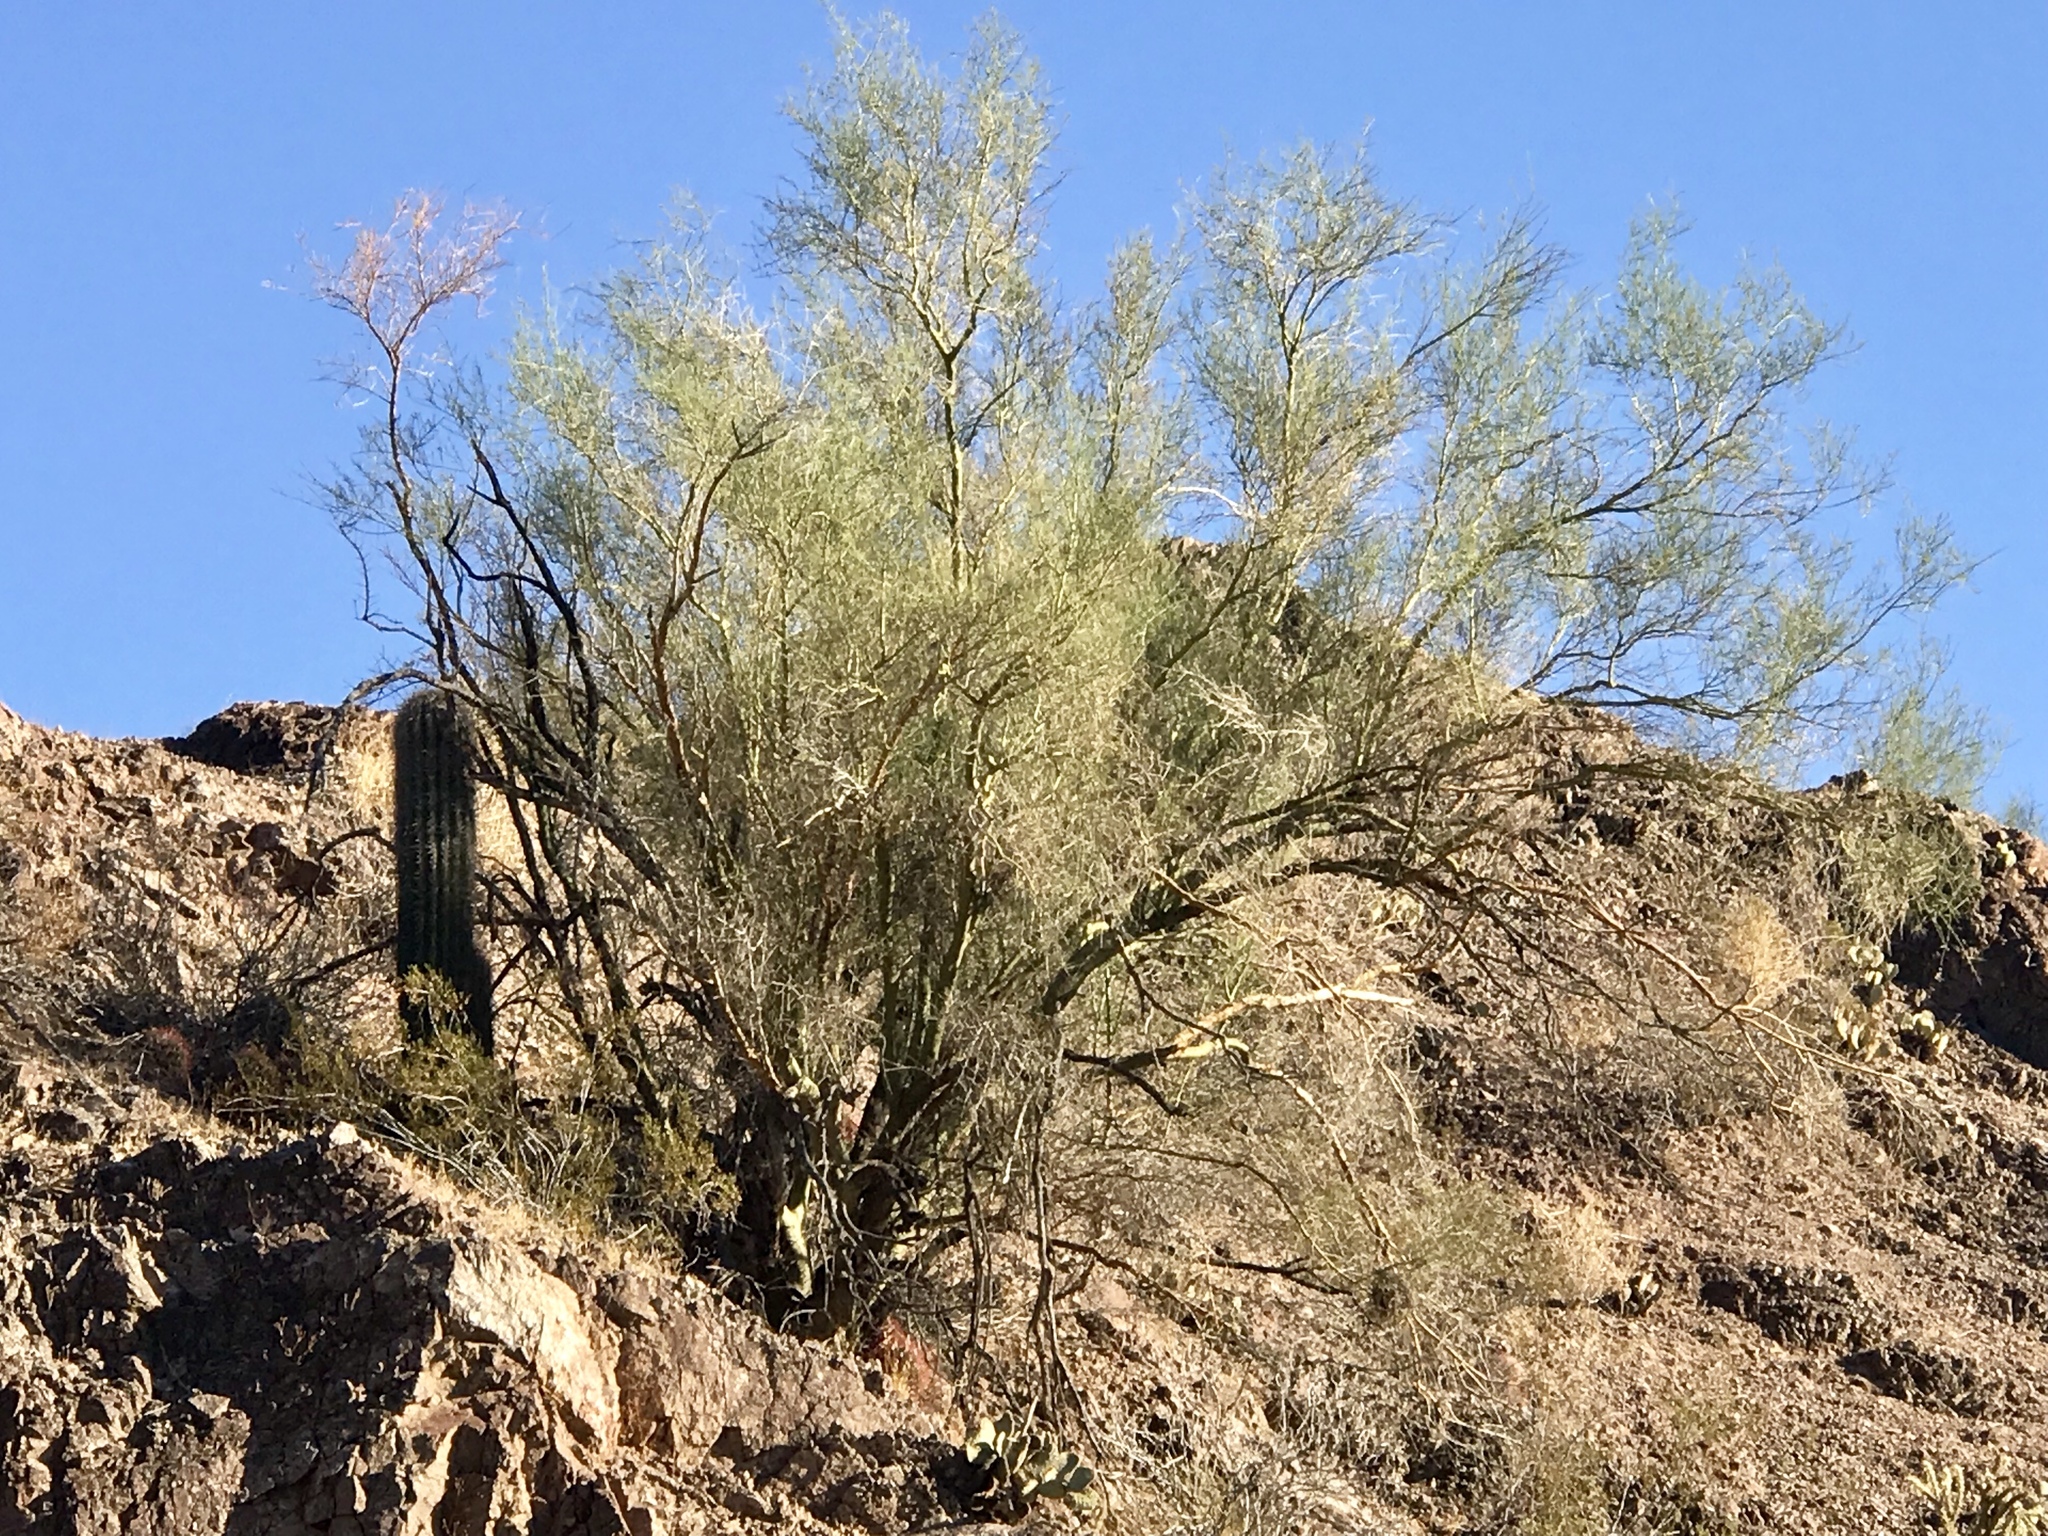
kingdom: Plantae
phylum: Tracheophyta
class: Magnoliopsida
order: Fabales
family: Fabaceae
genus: Parkinsonia
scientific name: Parkinsonia microphylla
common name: Yellow paloverde
